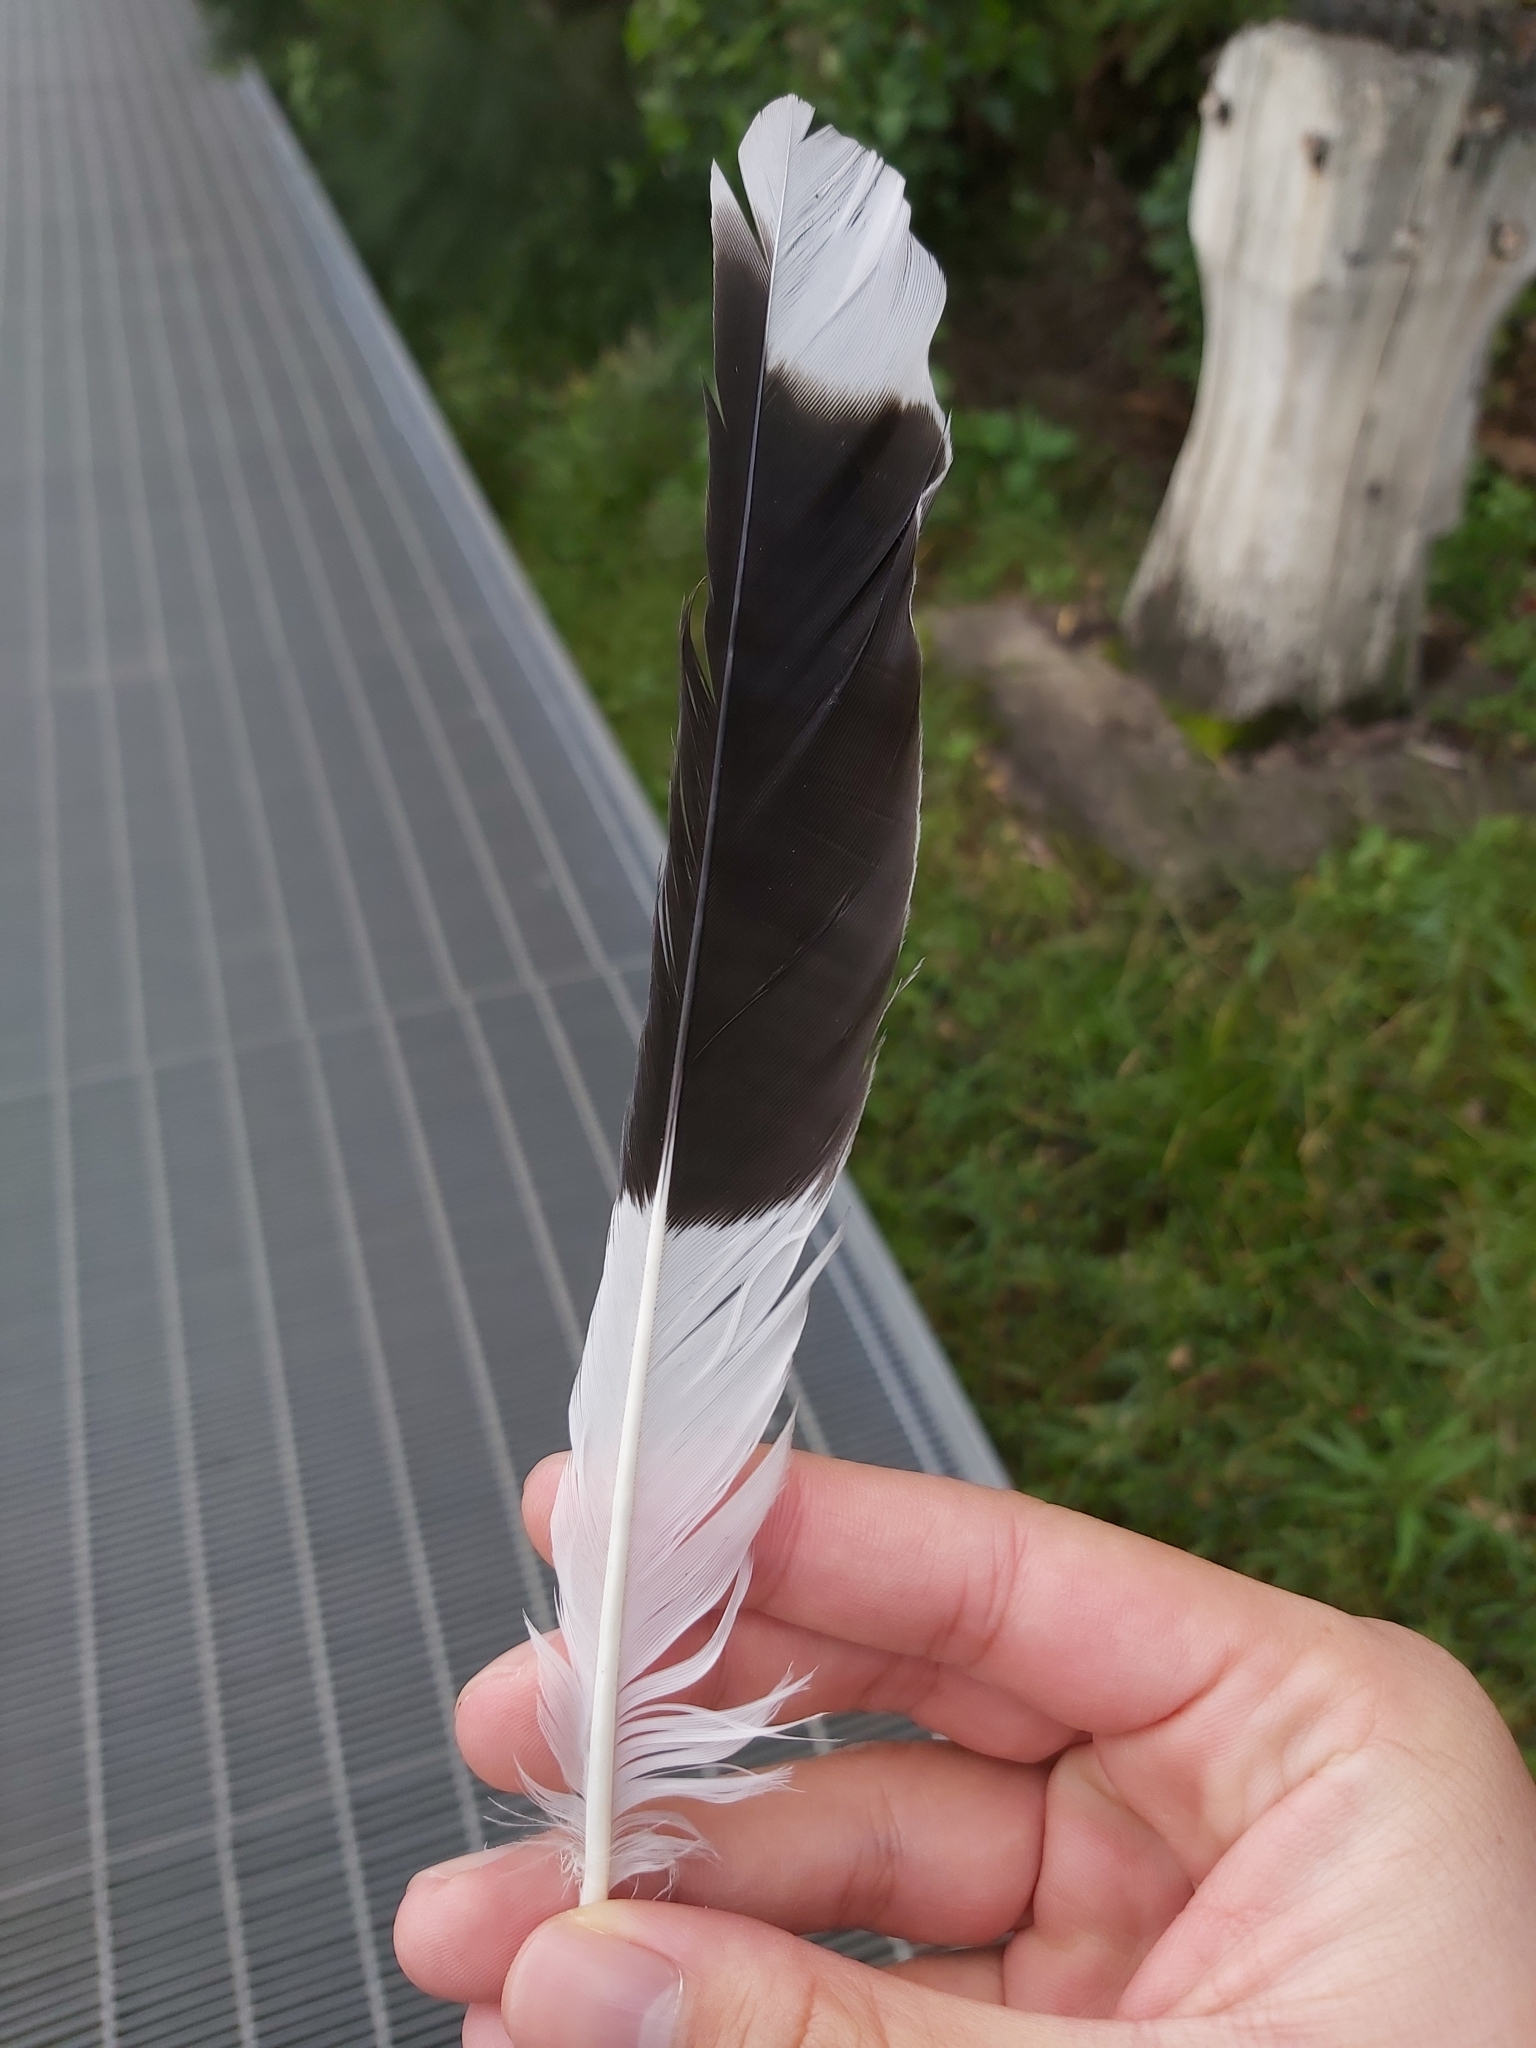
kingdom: Animalia
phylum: Chordata
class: Aves
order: Passeriformes
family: Cracticidae
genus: Strepera
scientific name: Strepera graculina
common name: Pied currawong
